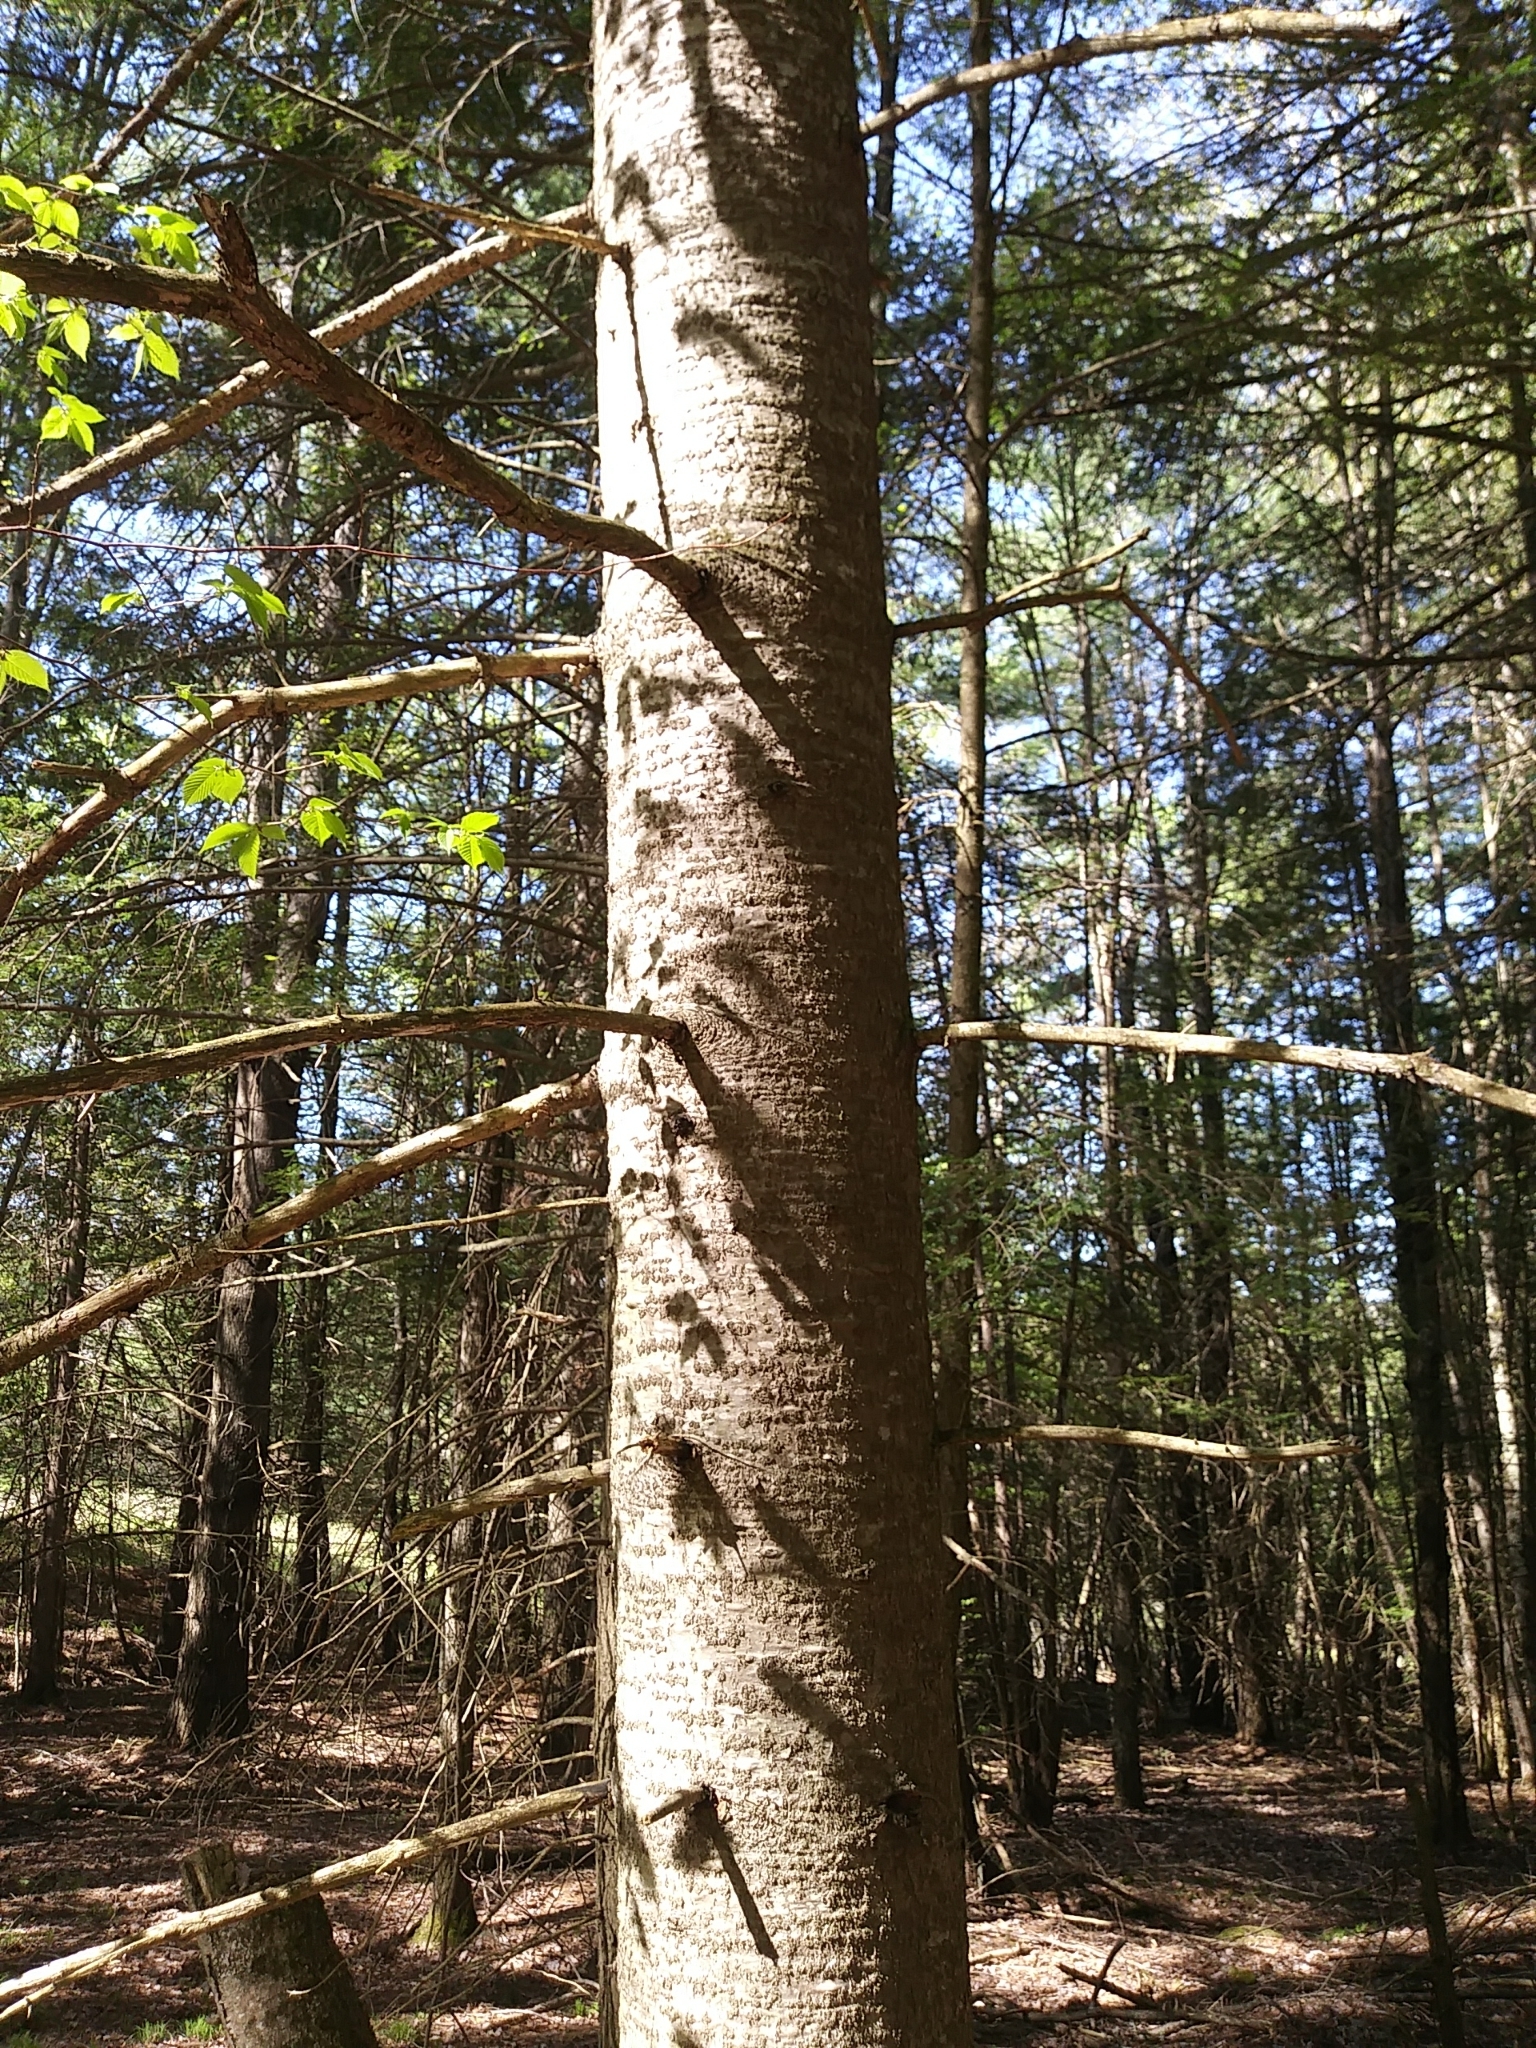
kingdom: Plantae
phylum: Tracheophyta
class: Pinopsida
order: Pinales
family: Pinaceae
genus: Abies
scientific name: Abies balsamea
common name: Balsam fir
